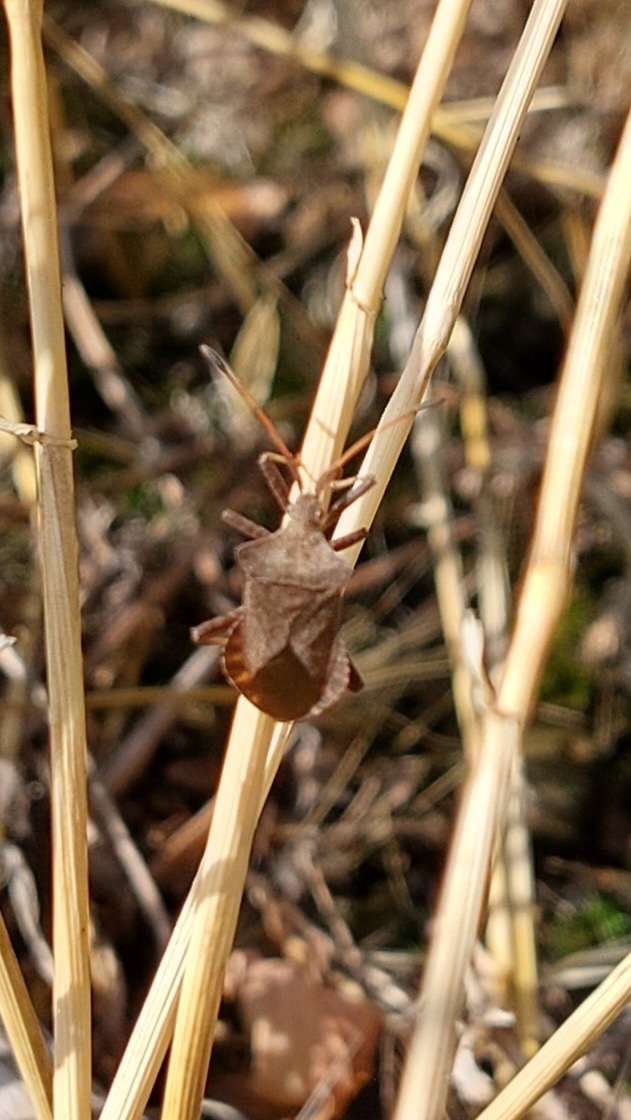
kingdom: Animalia
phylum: Arthropoda
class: Insecta
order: Hemiptera
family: Coreidae
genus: Coreus
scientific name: Coreus marginatus
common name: Dock bug
